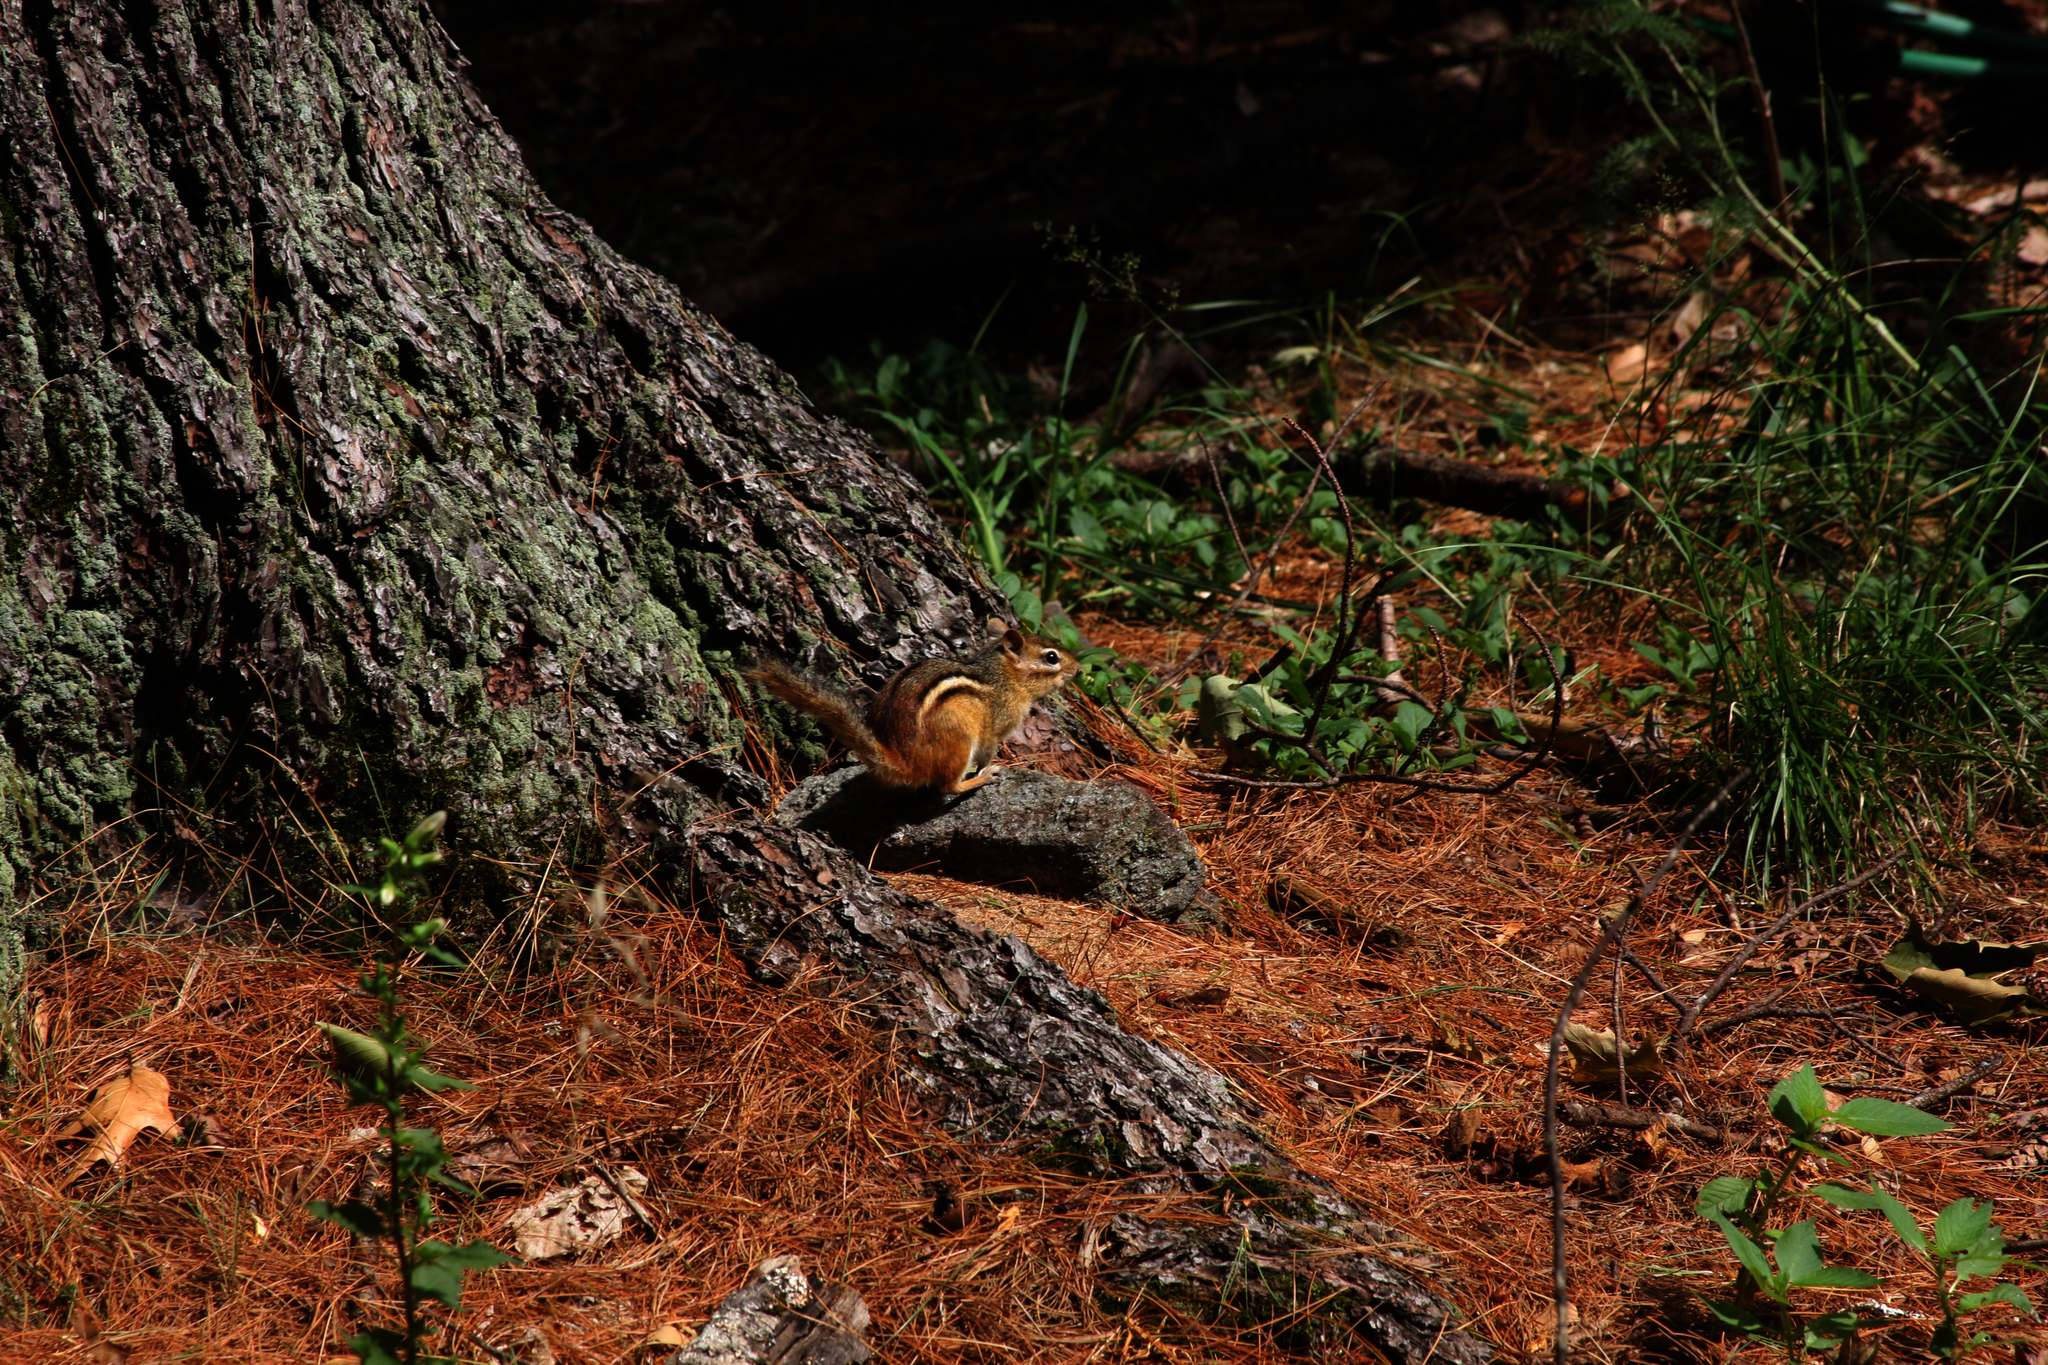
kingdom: Animalia
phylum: Chordata
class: Mammalia
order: Rodentia
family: Sciuridae
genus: Tamias
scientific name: Tamias striatus
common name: Eastern chipmunk
